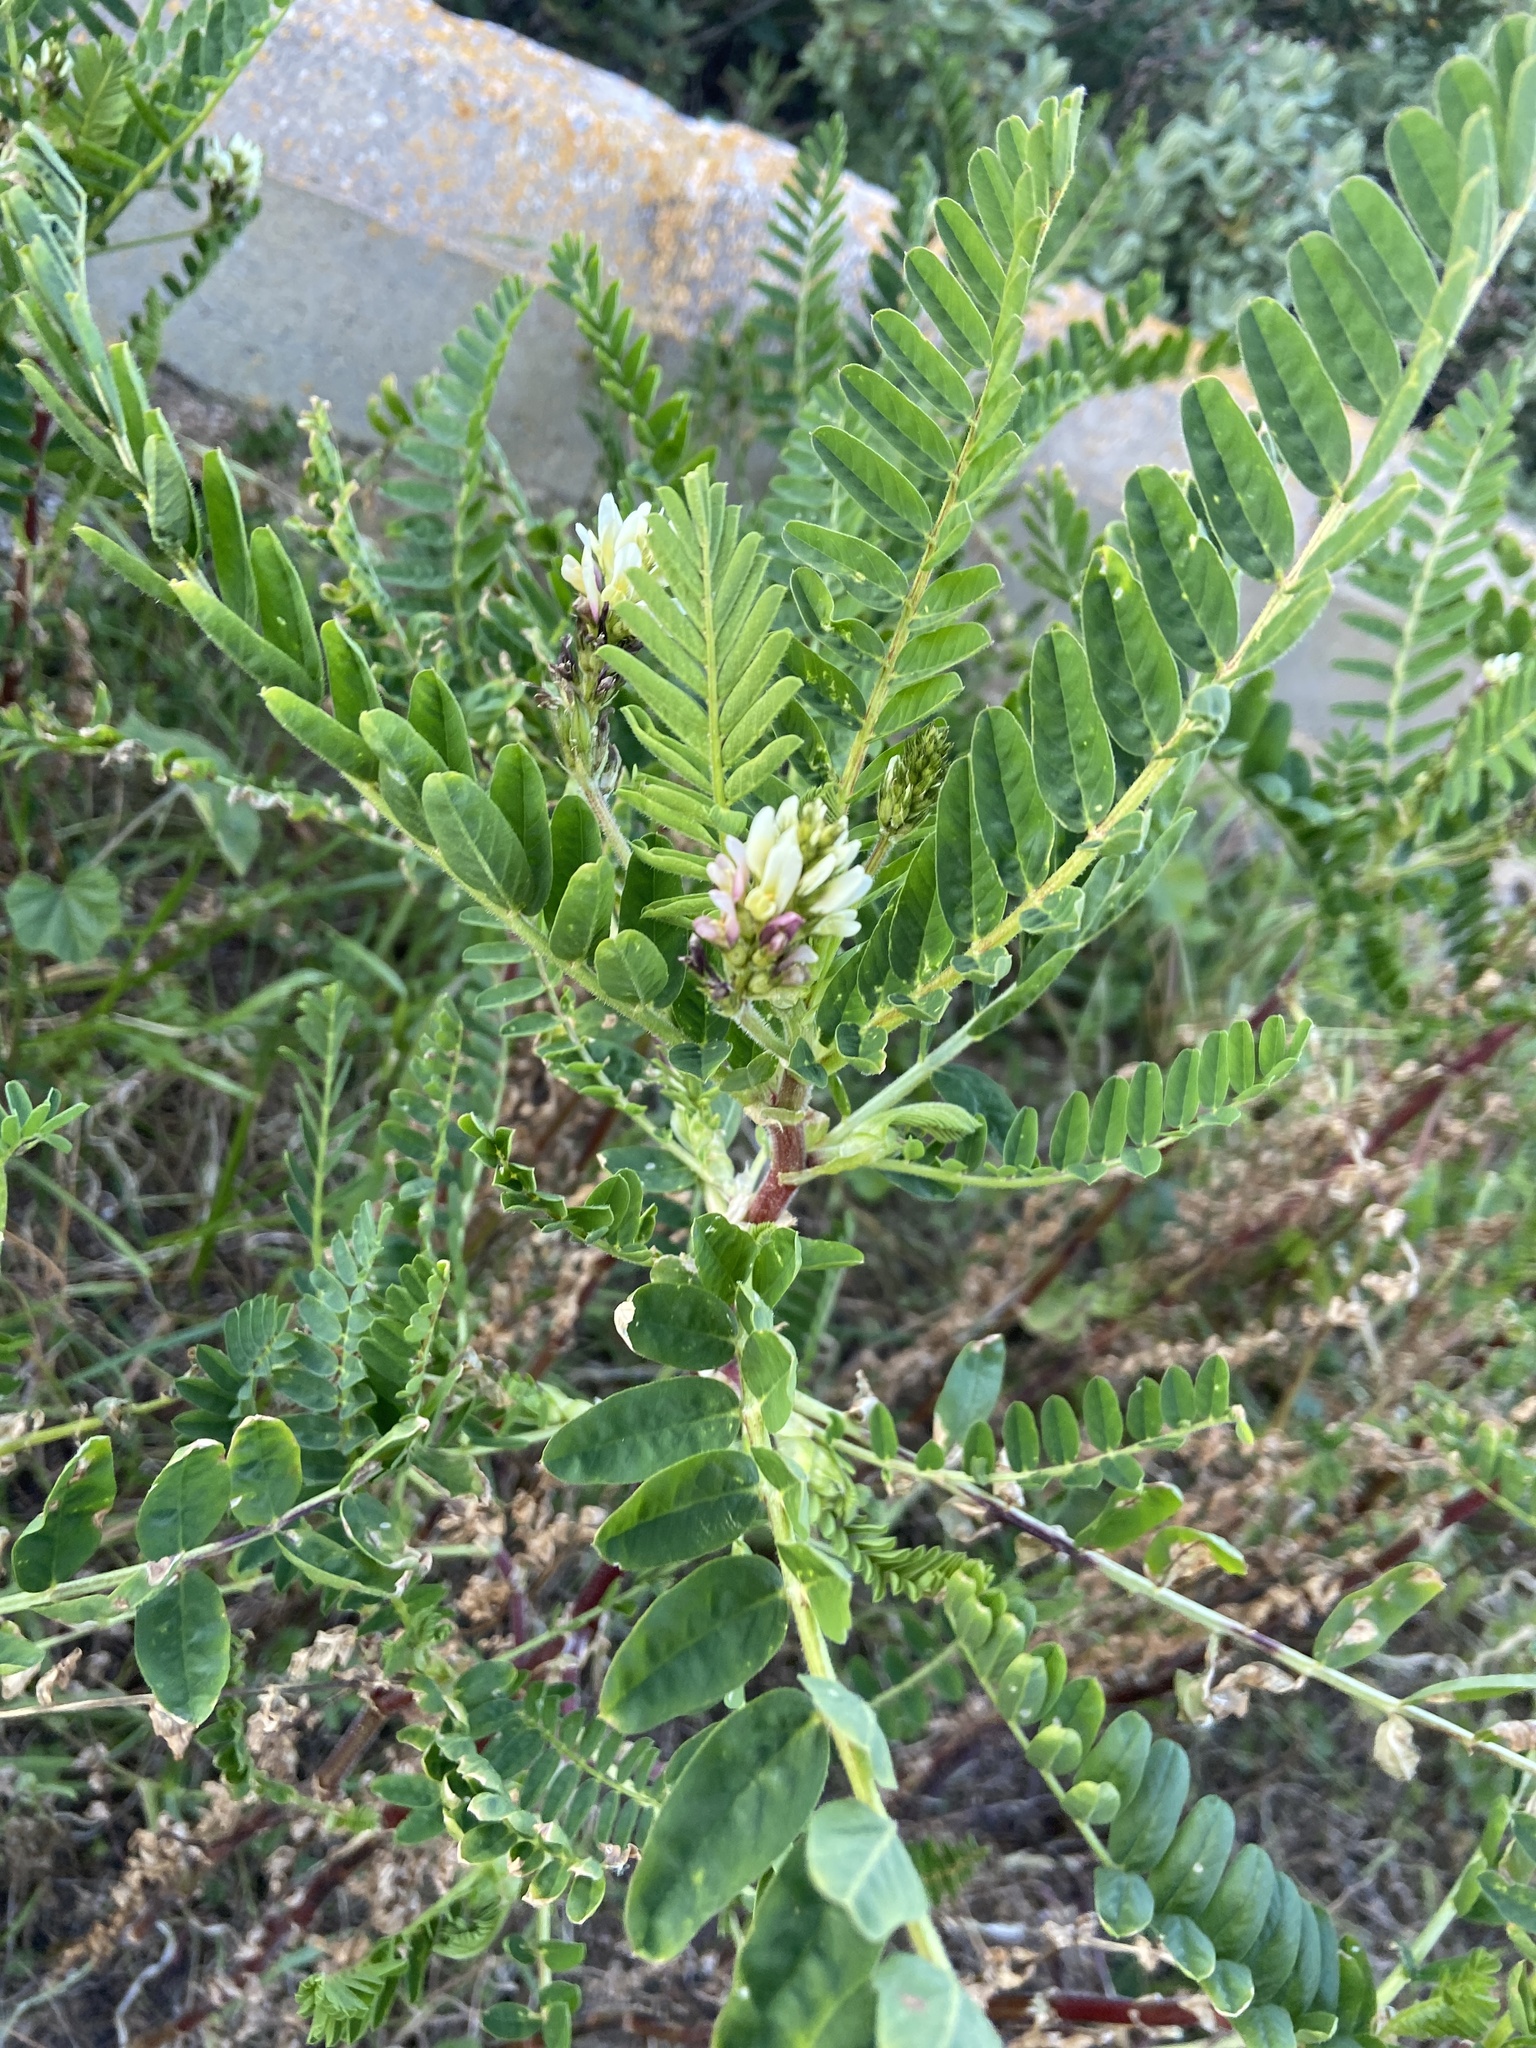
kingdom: Plantae
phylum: Tracheophyta
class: Magnoliopsida
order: Fabales
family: Fabaceae
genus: Astragalus
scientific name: Astragalus boeticus
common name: Milk-vetch
